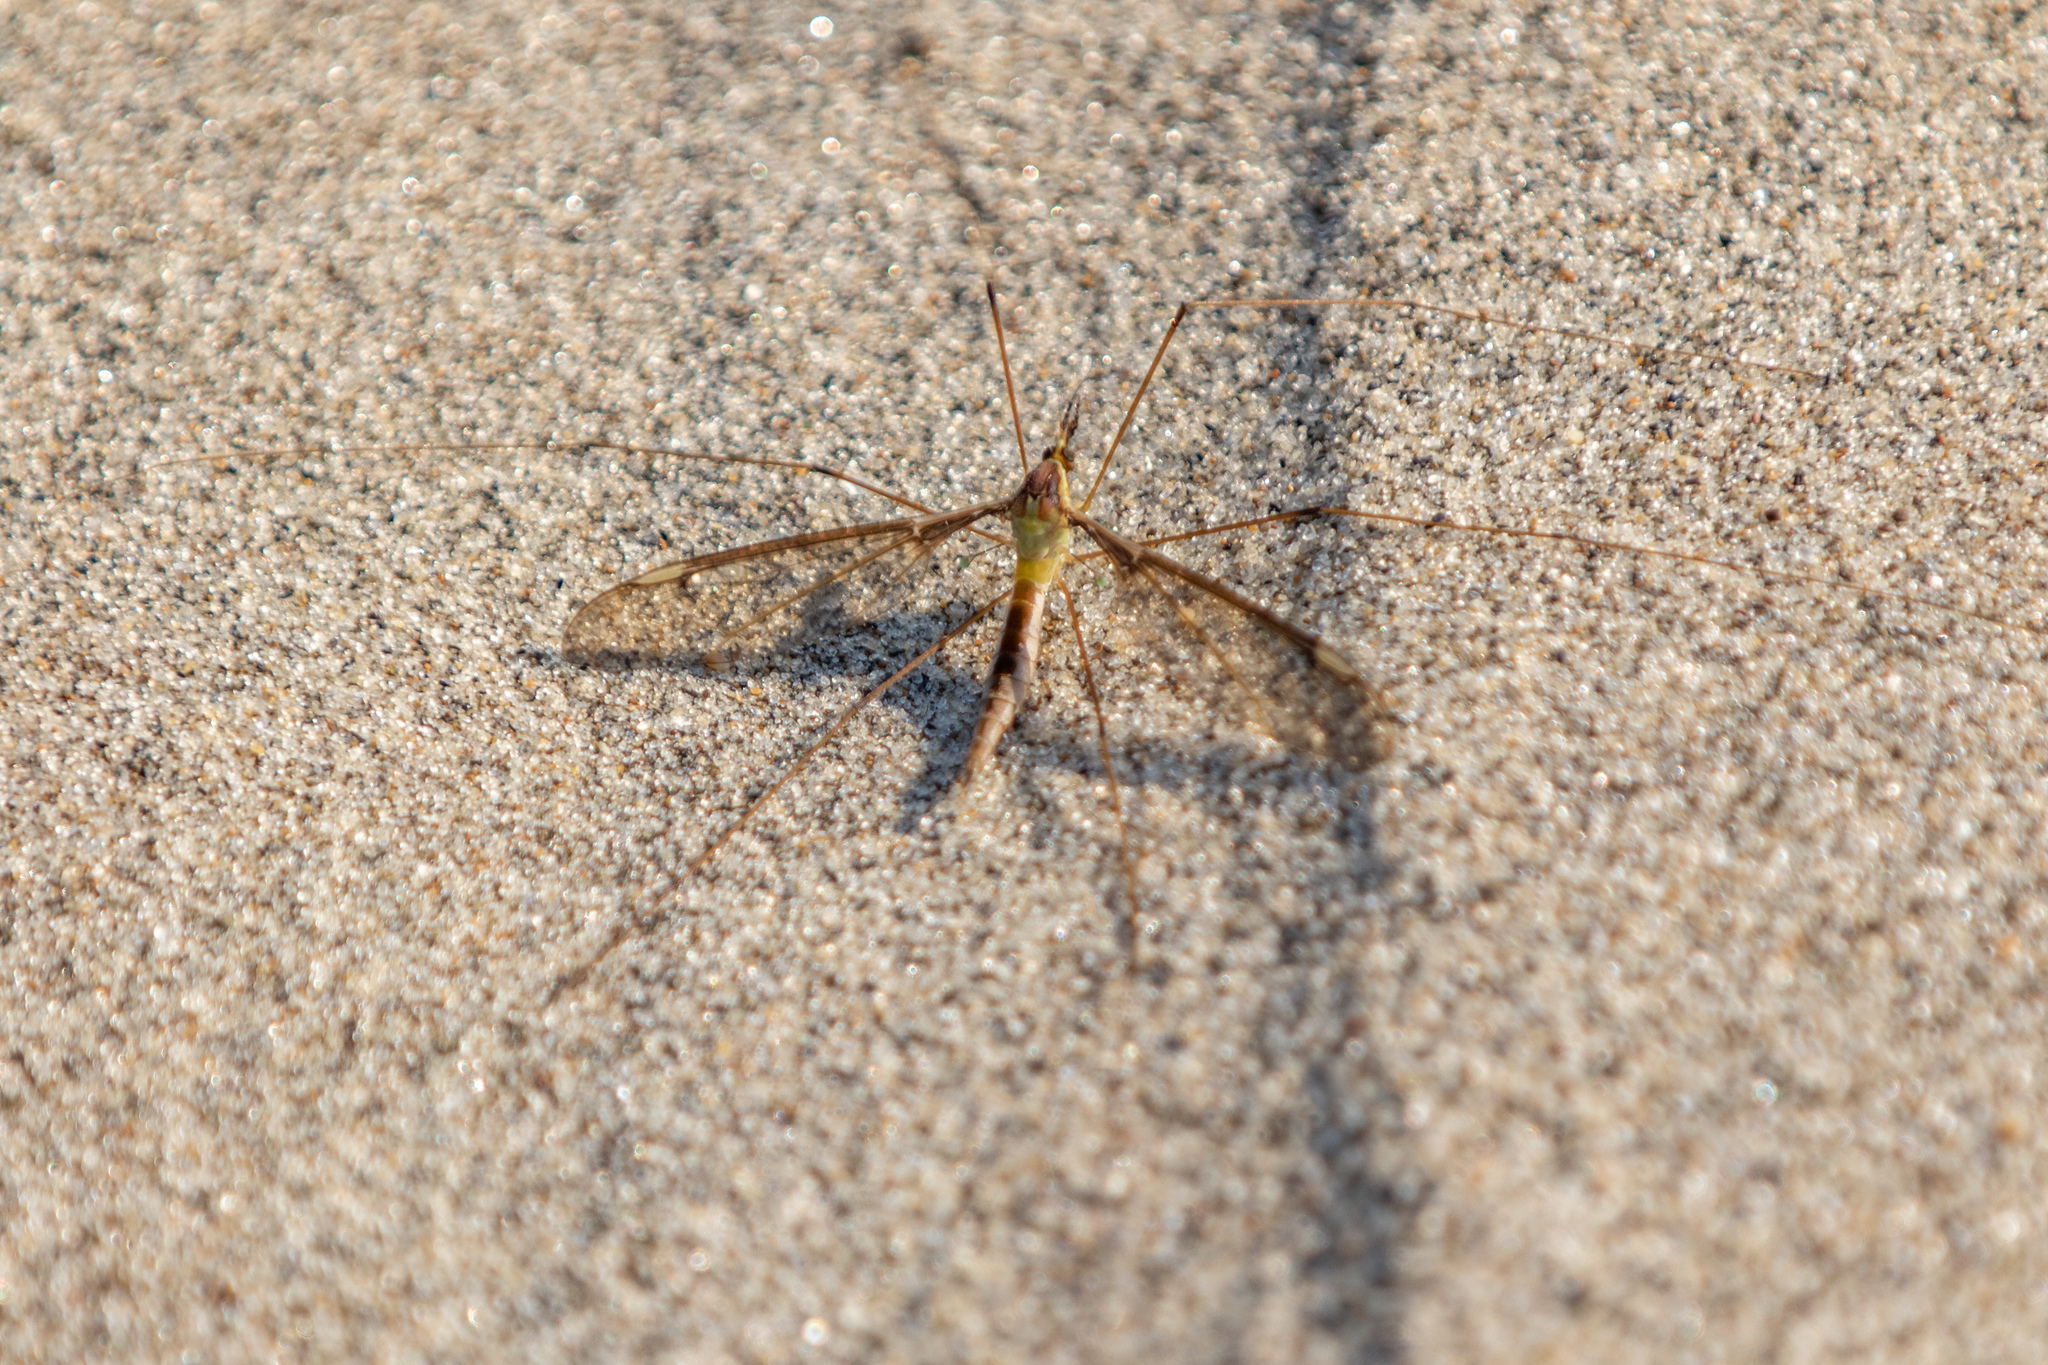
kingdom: Animalia
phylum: Arthropoda
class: Insecta
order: Diptera
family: Tipulidae
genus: Leptotarsus
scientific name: Leptotarsus albistigma
